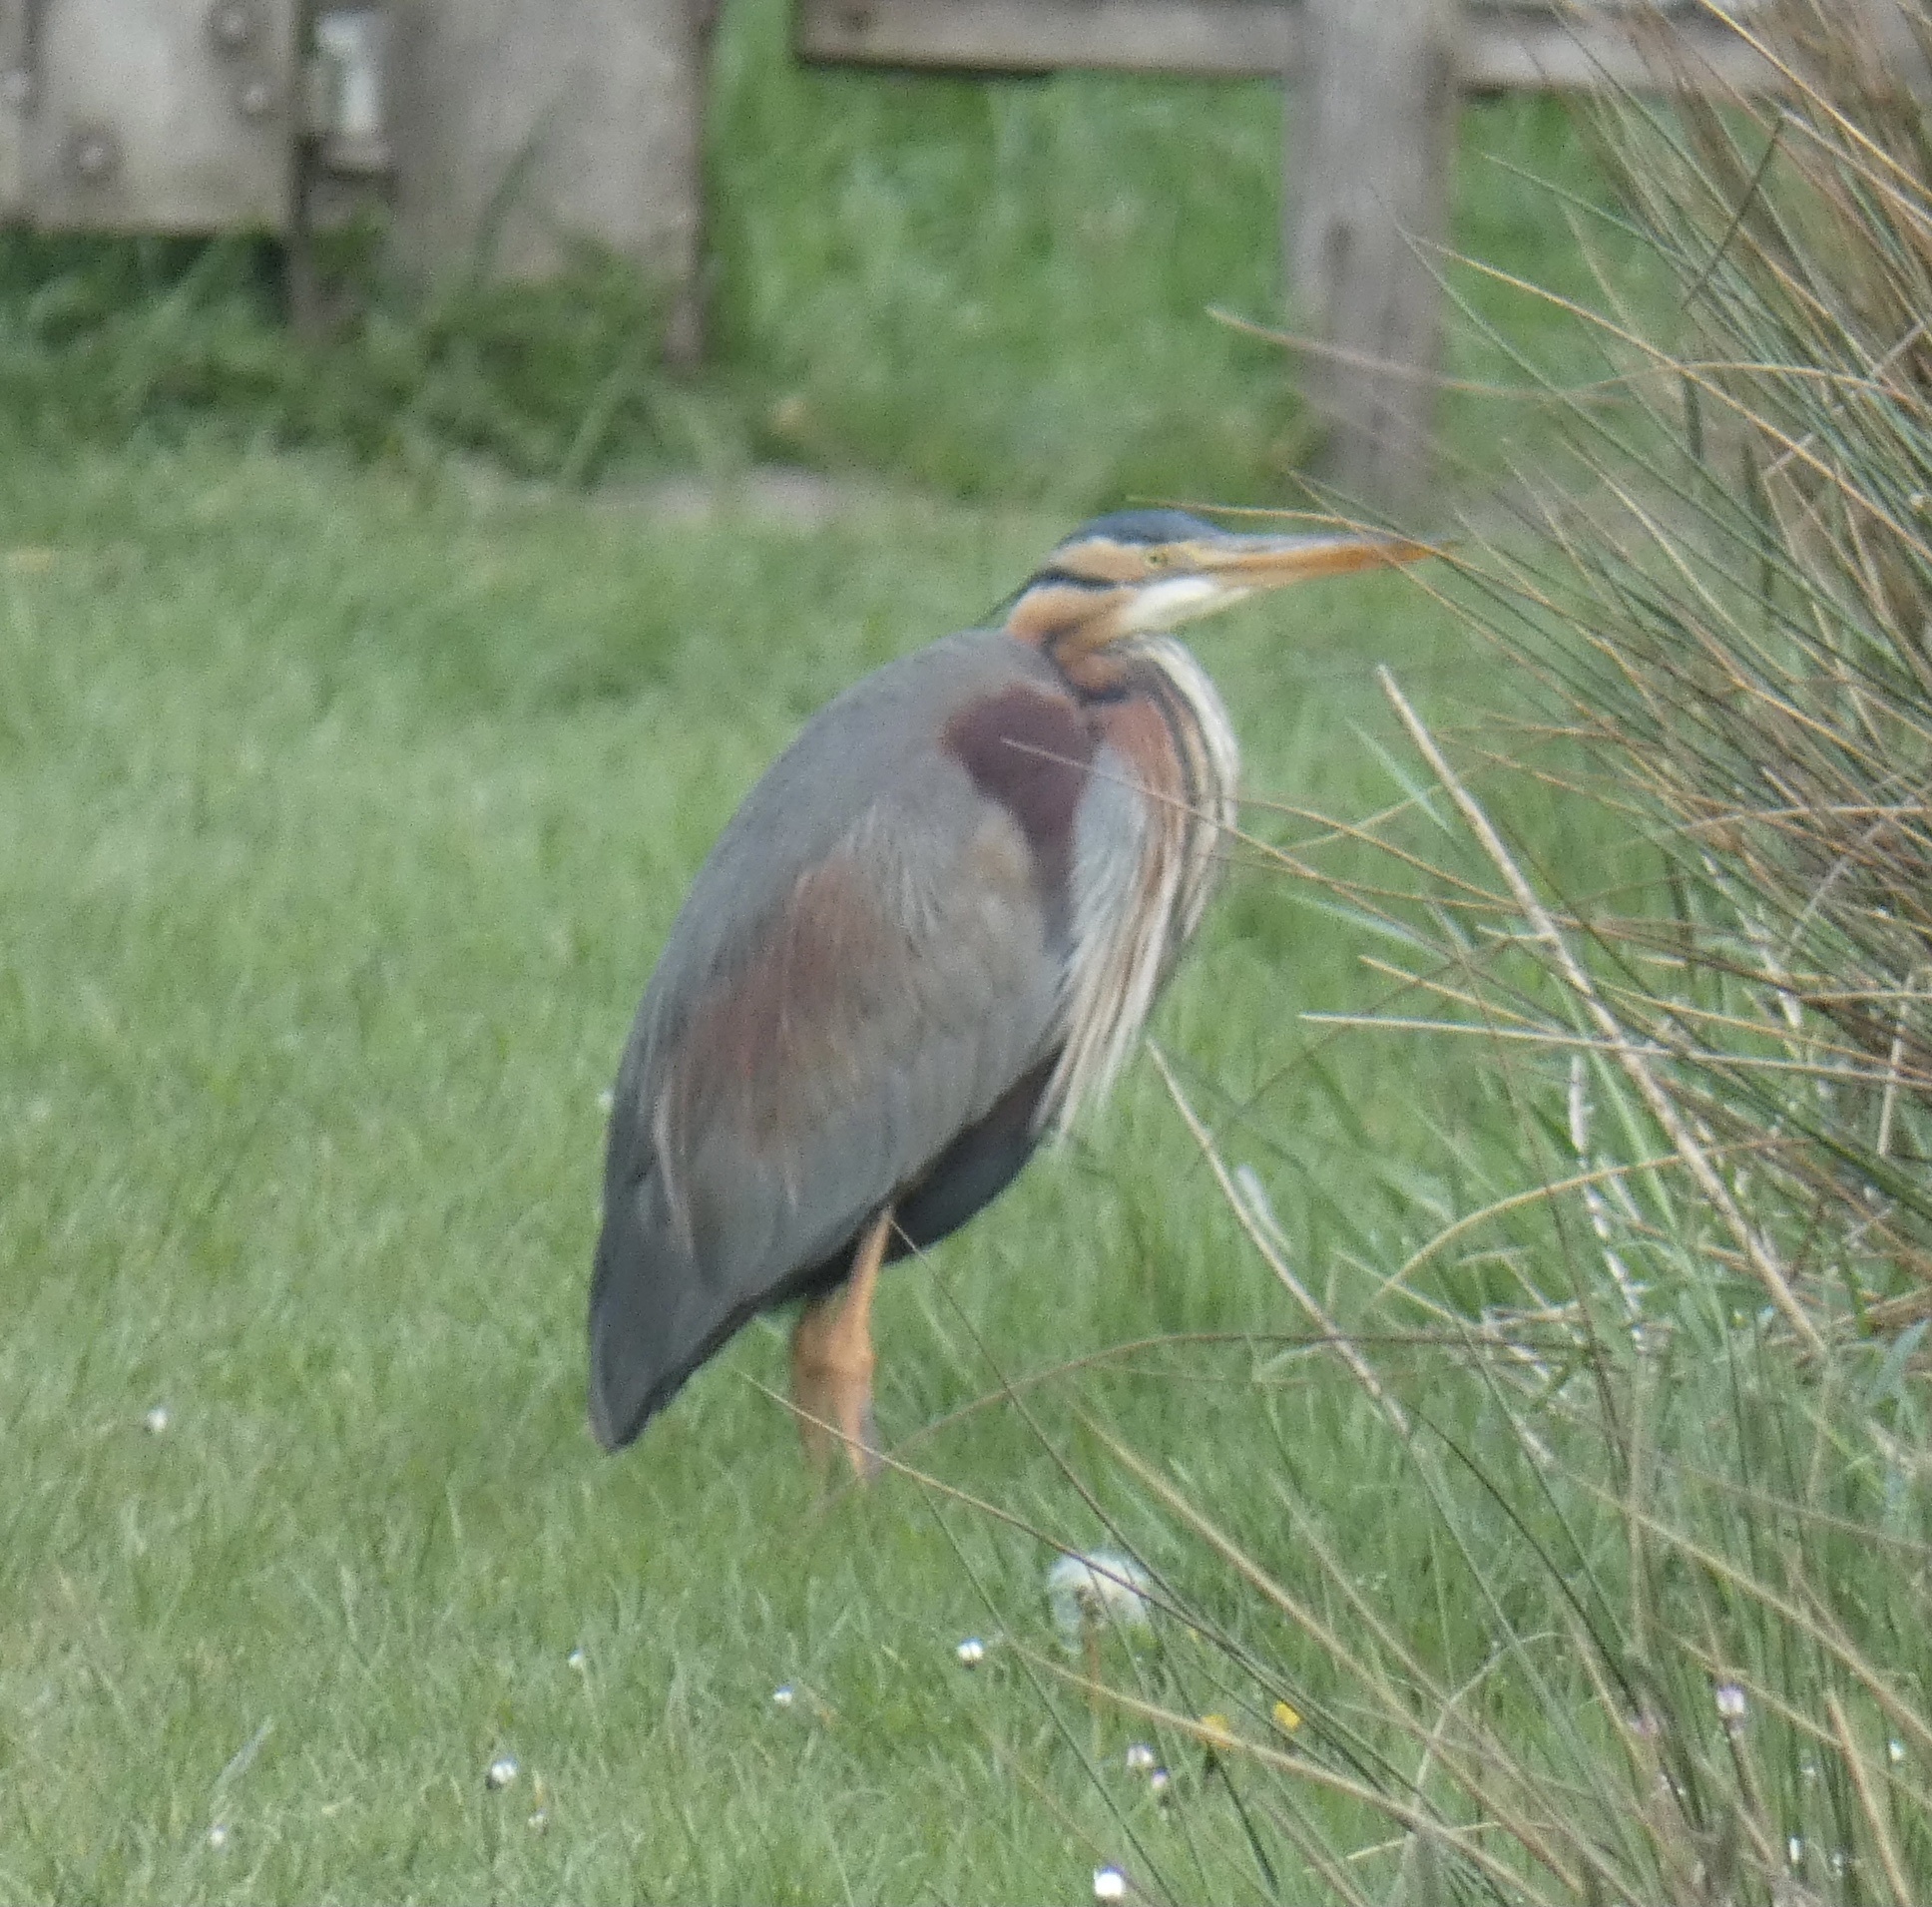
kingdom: Animalia
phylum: Chordata
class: Aves
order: Pelecaniformes
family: Ardeidae
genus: Ardea
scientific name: Ardea purpurea
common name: Purple heron
